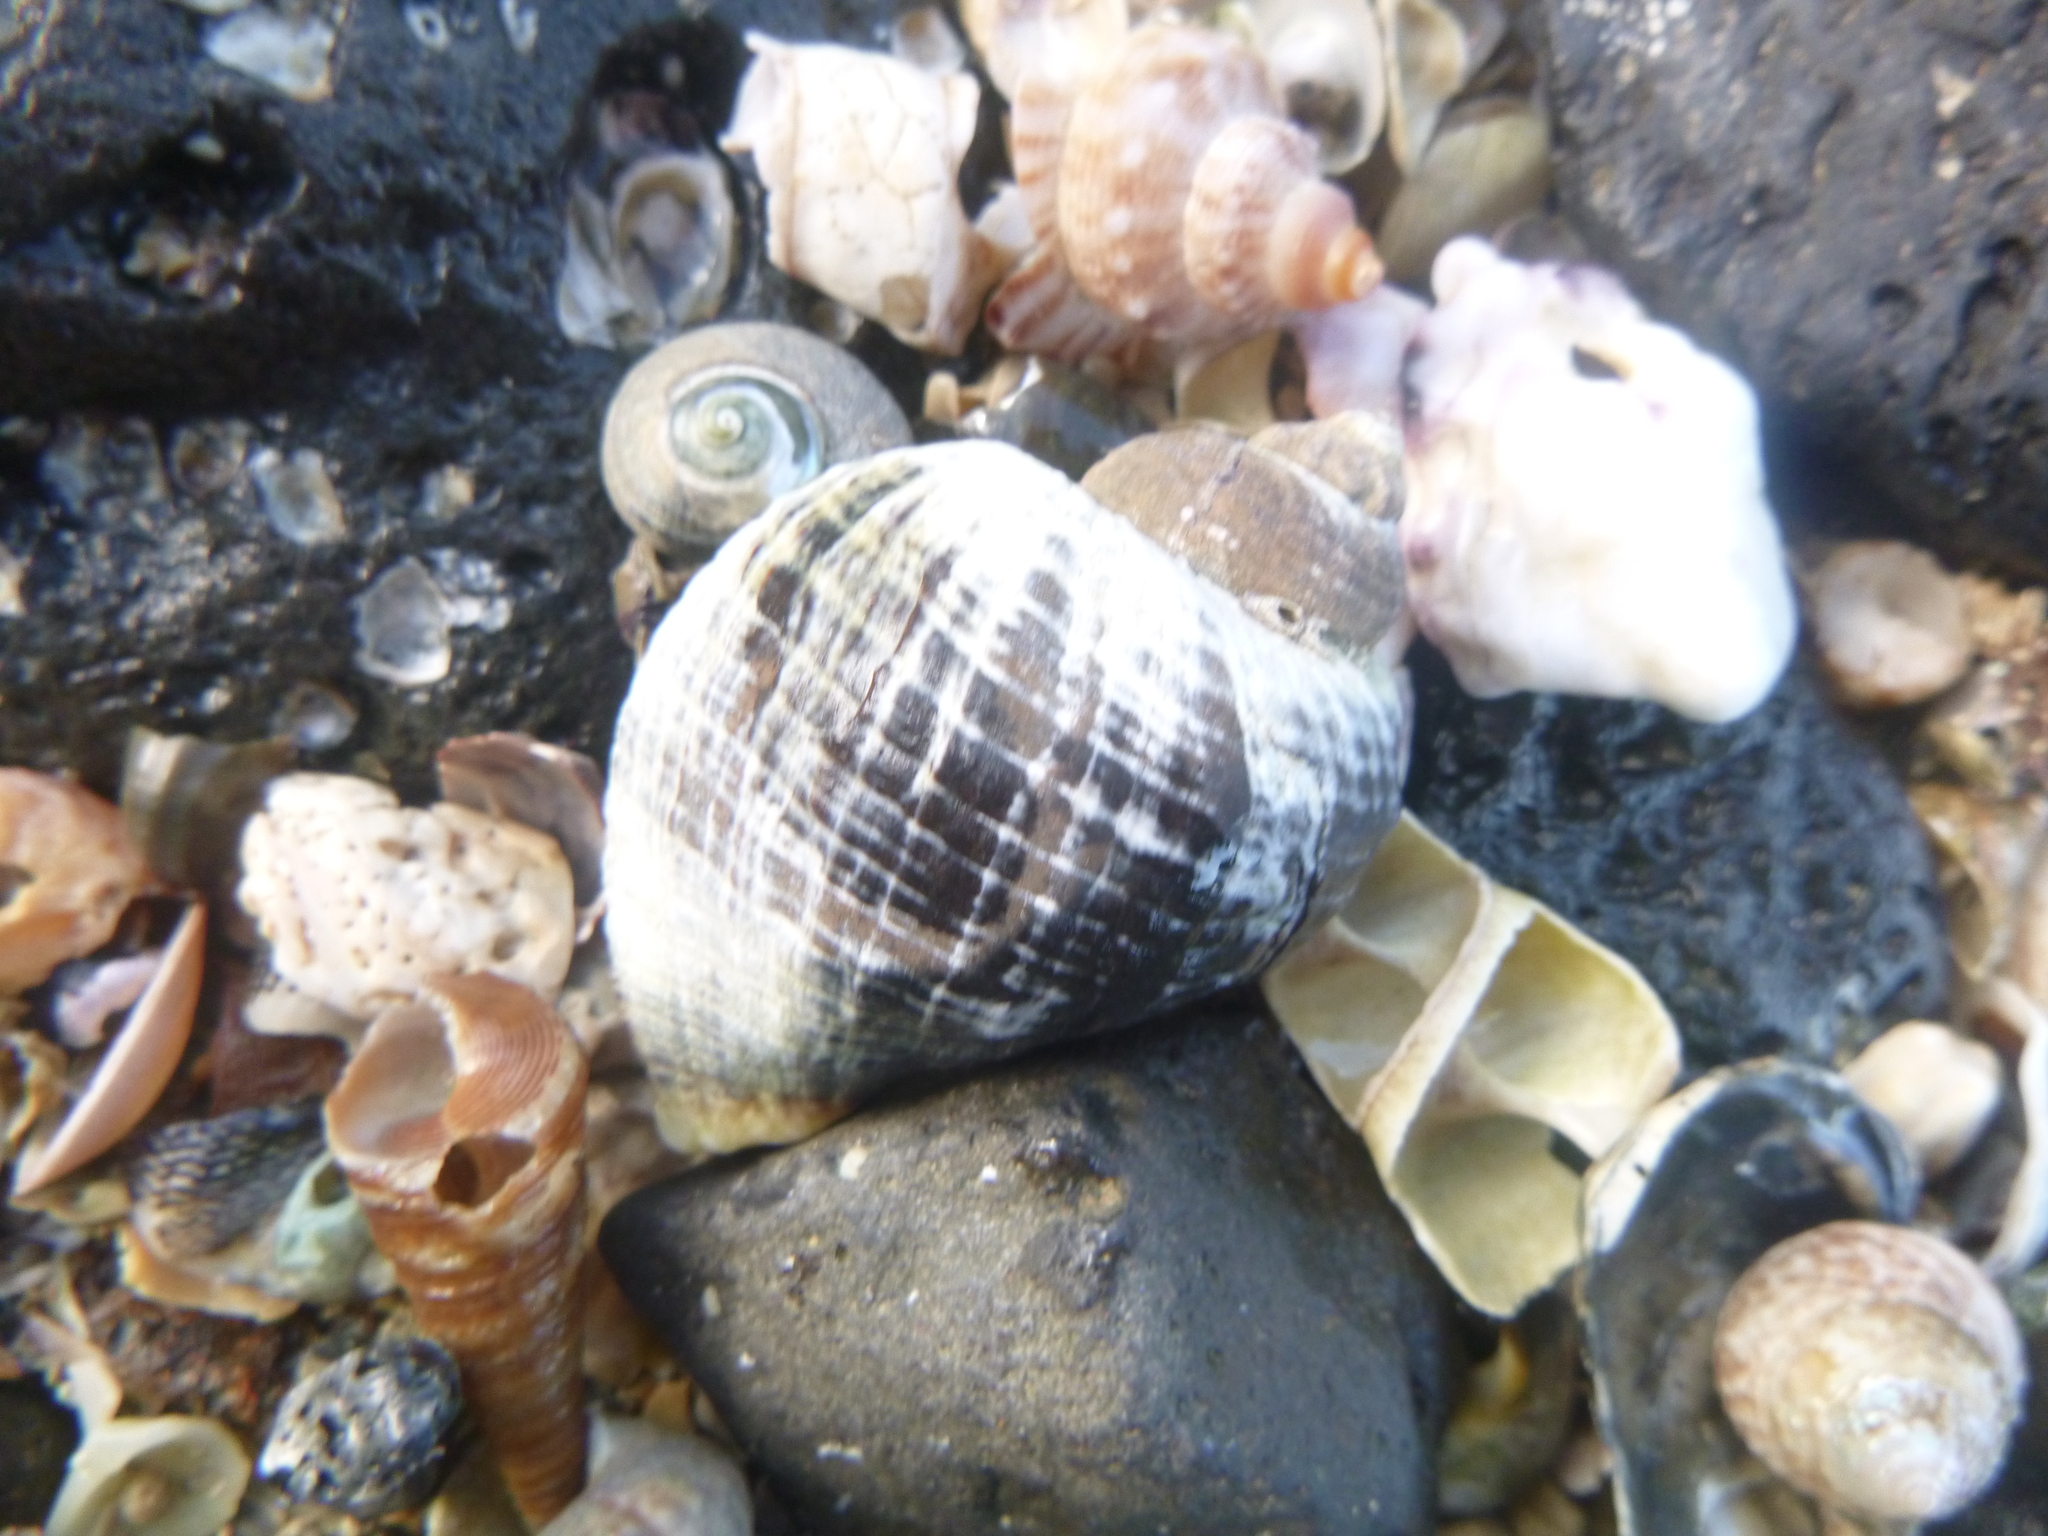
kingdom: Animalia
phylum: Mollusca
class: Gastropoda
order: Neogastropoda
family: Muricidae
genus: Haustrum
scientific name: Haustrum haustorium
